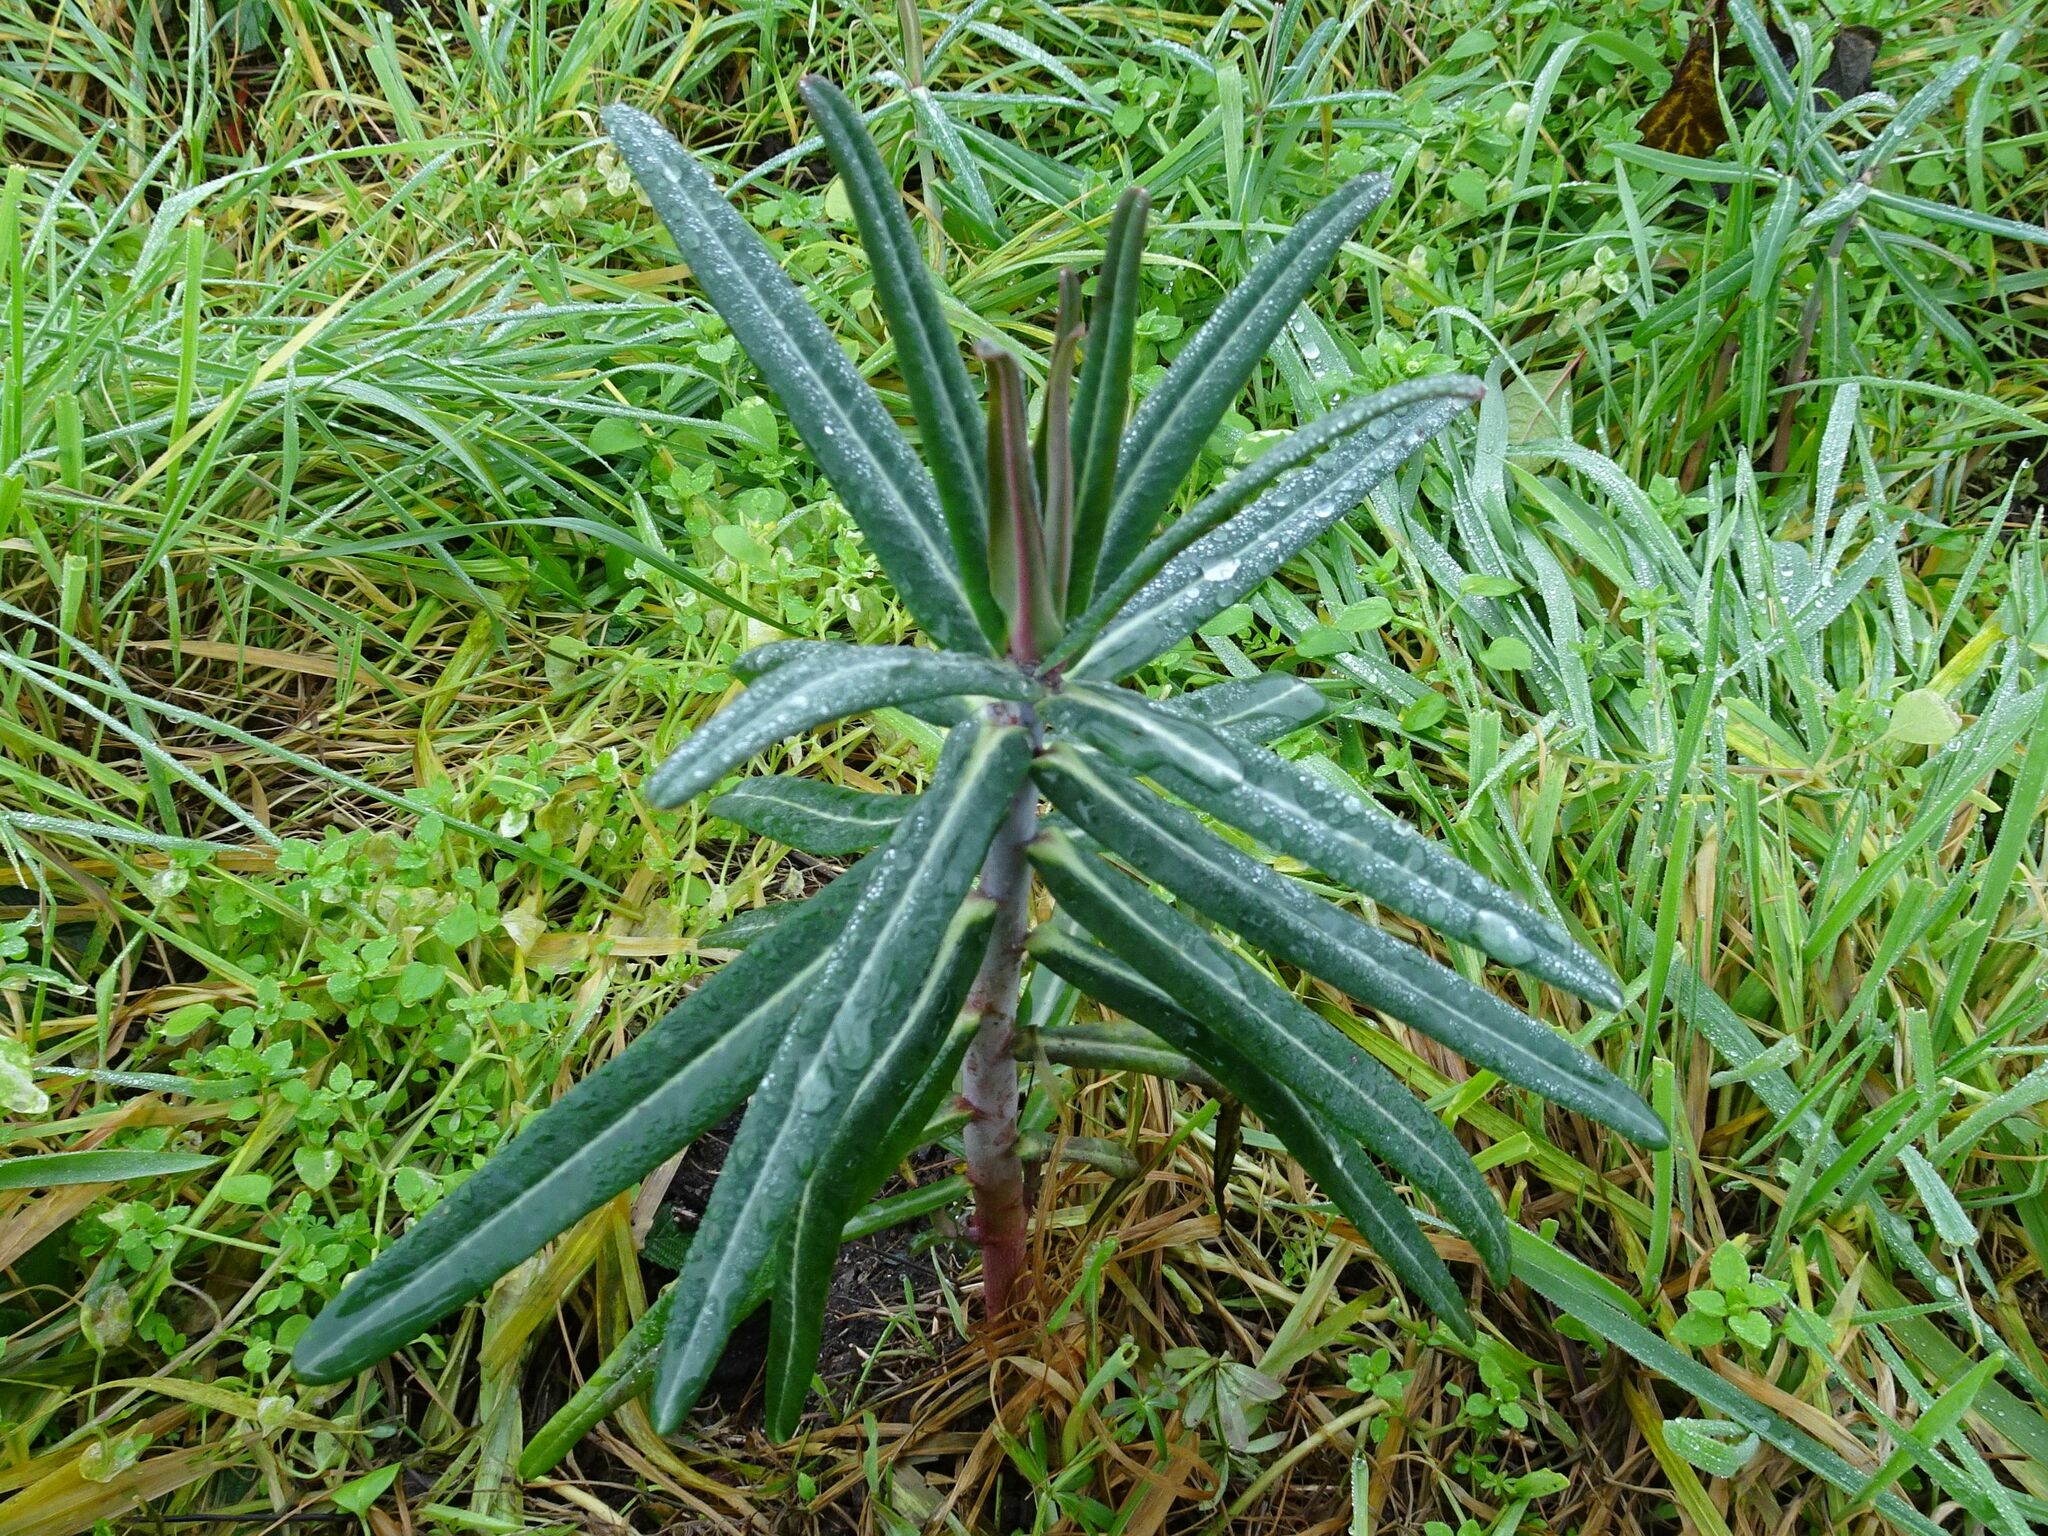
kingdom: Plantae
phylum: Tracheophyta
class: Magnoliopsida
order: Malpighiales
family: Euphorbiaceae
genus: Euphorbia
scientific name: Euphorbia lathyris
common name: Caper spurge
